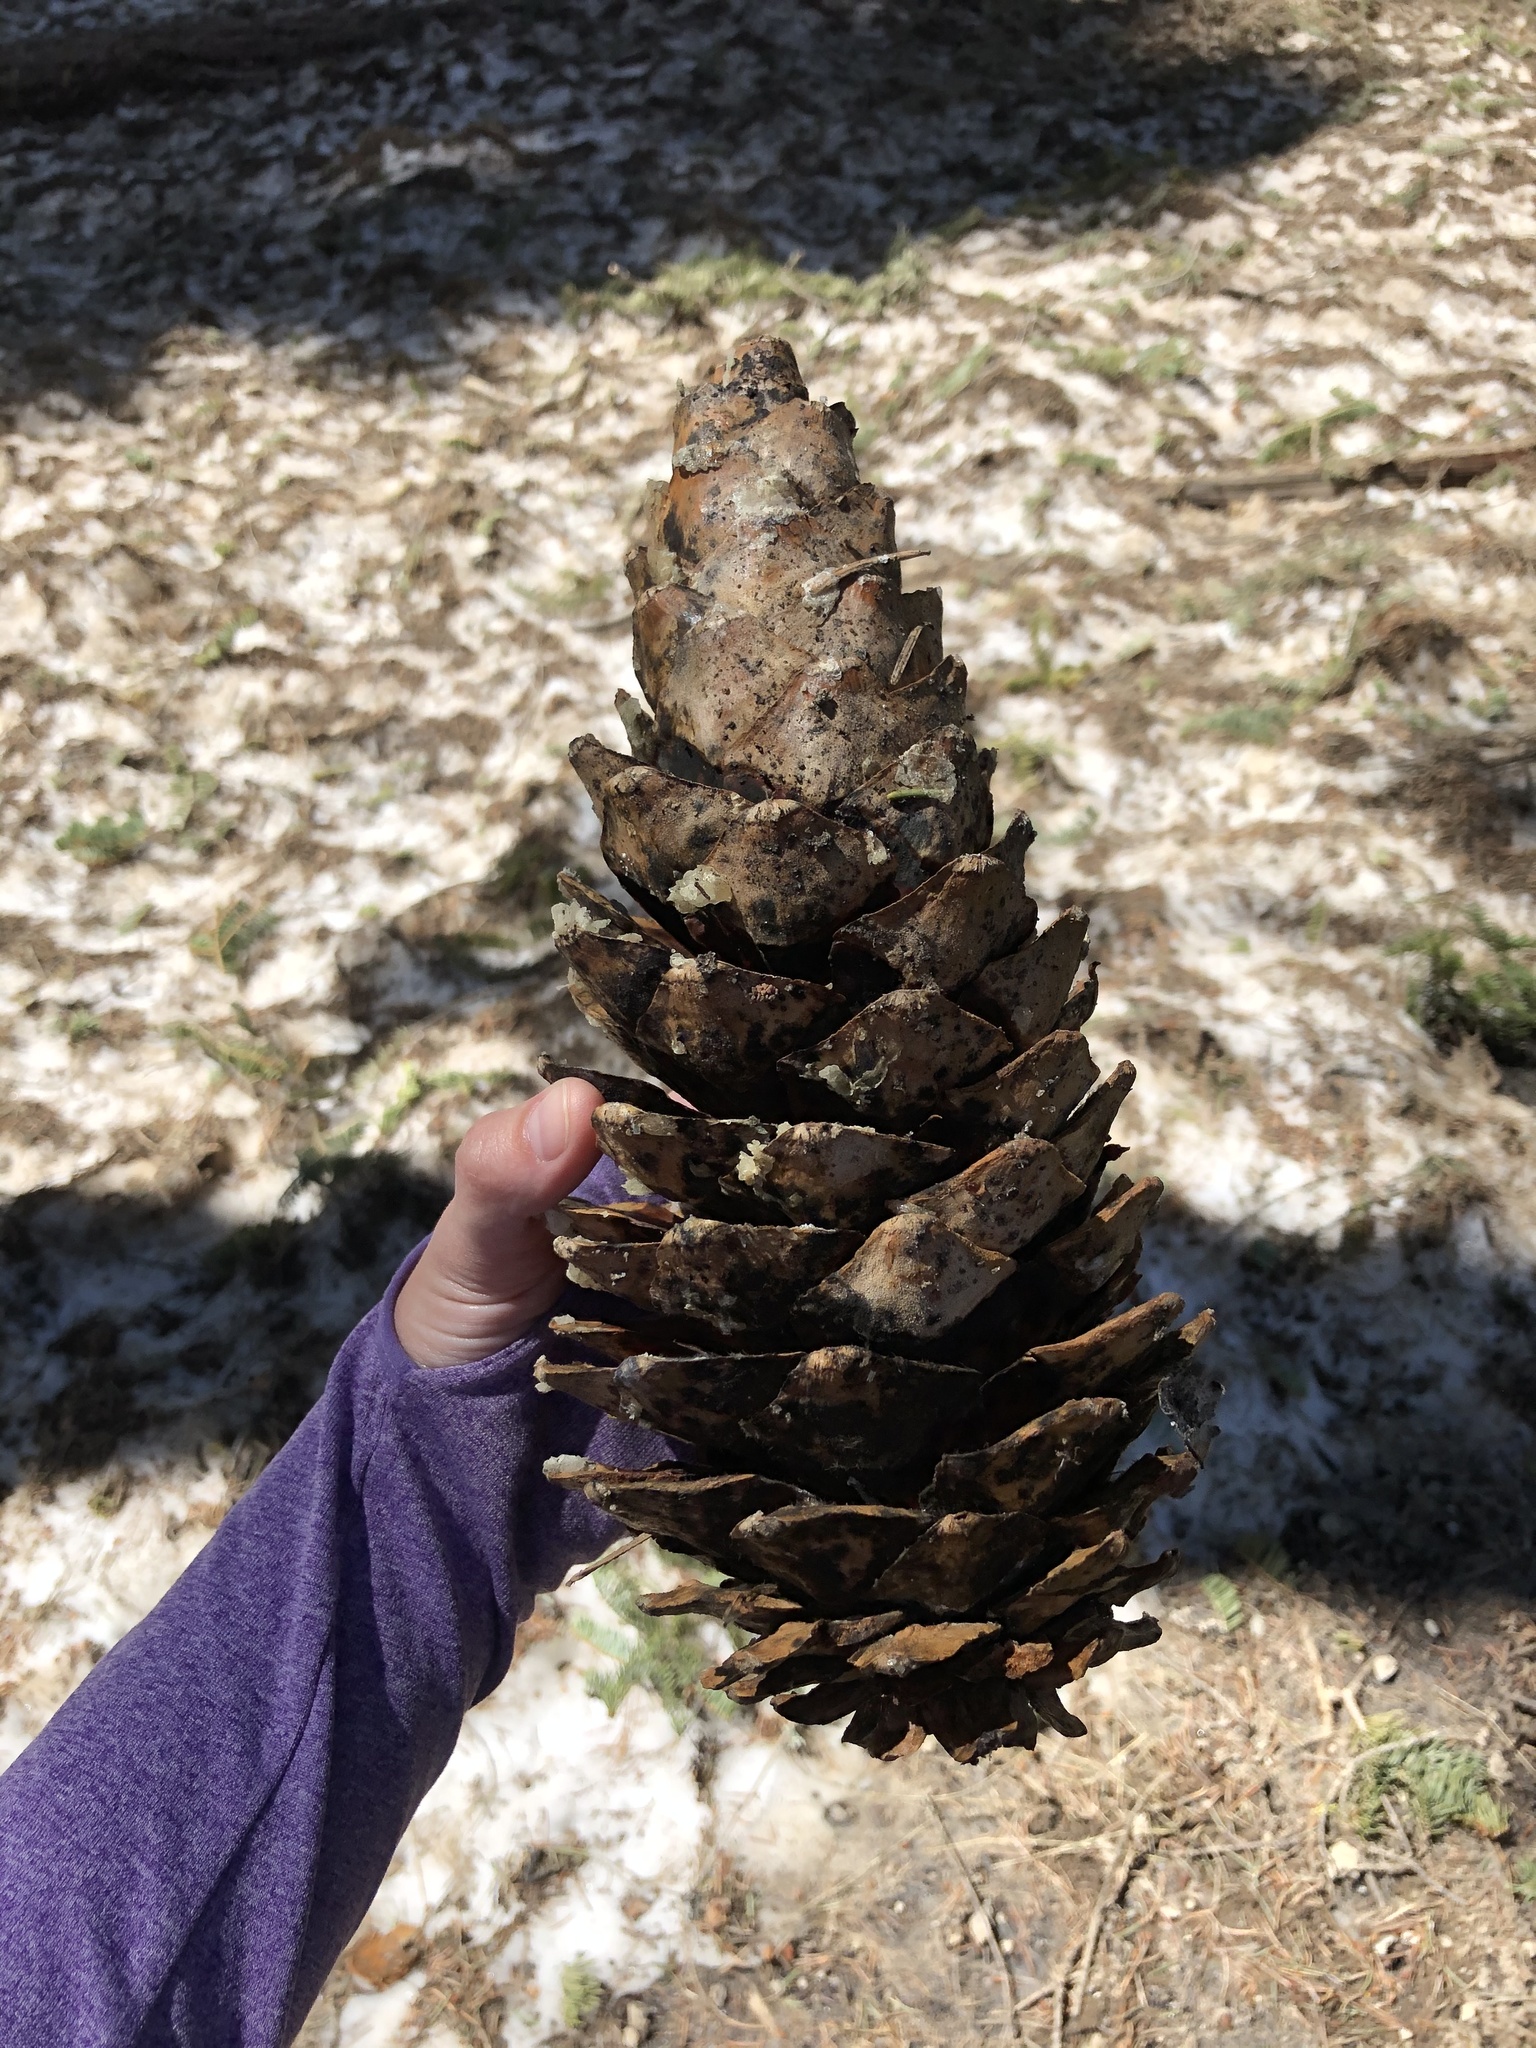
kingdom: Plantae
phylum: Tracheophyta
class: Pinopsida
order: Pinales
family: Pinaceae
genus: Pinus
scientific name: Pinus lambertiana
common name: Sugar pine
